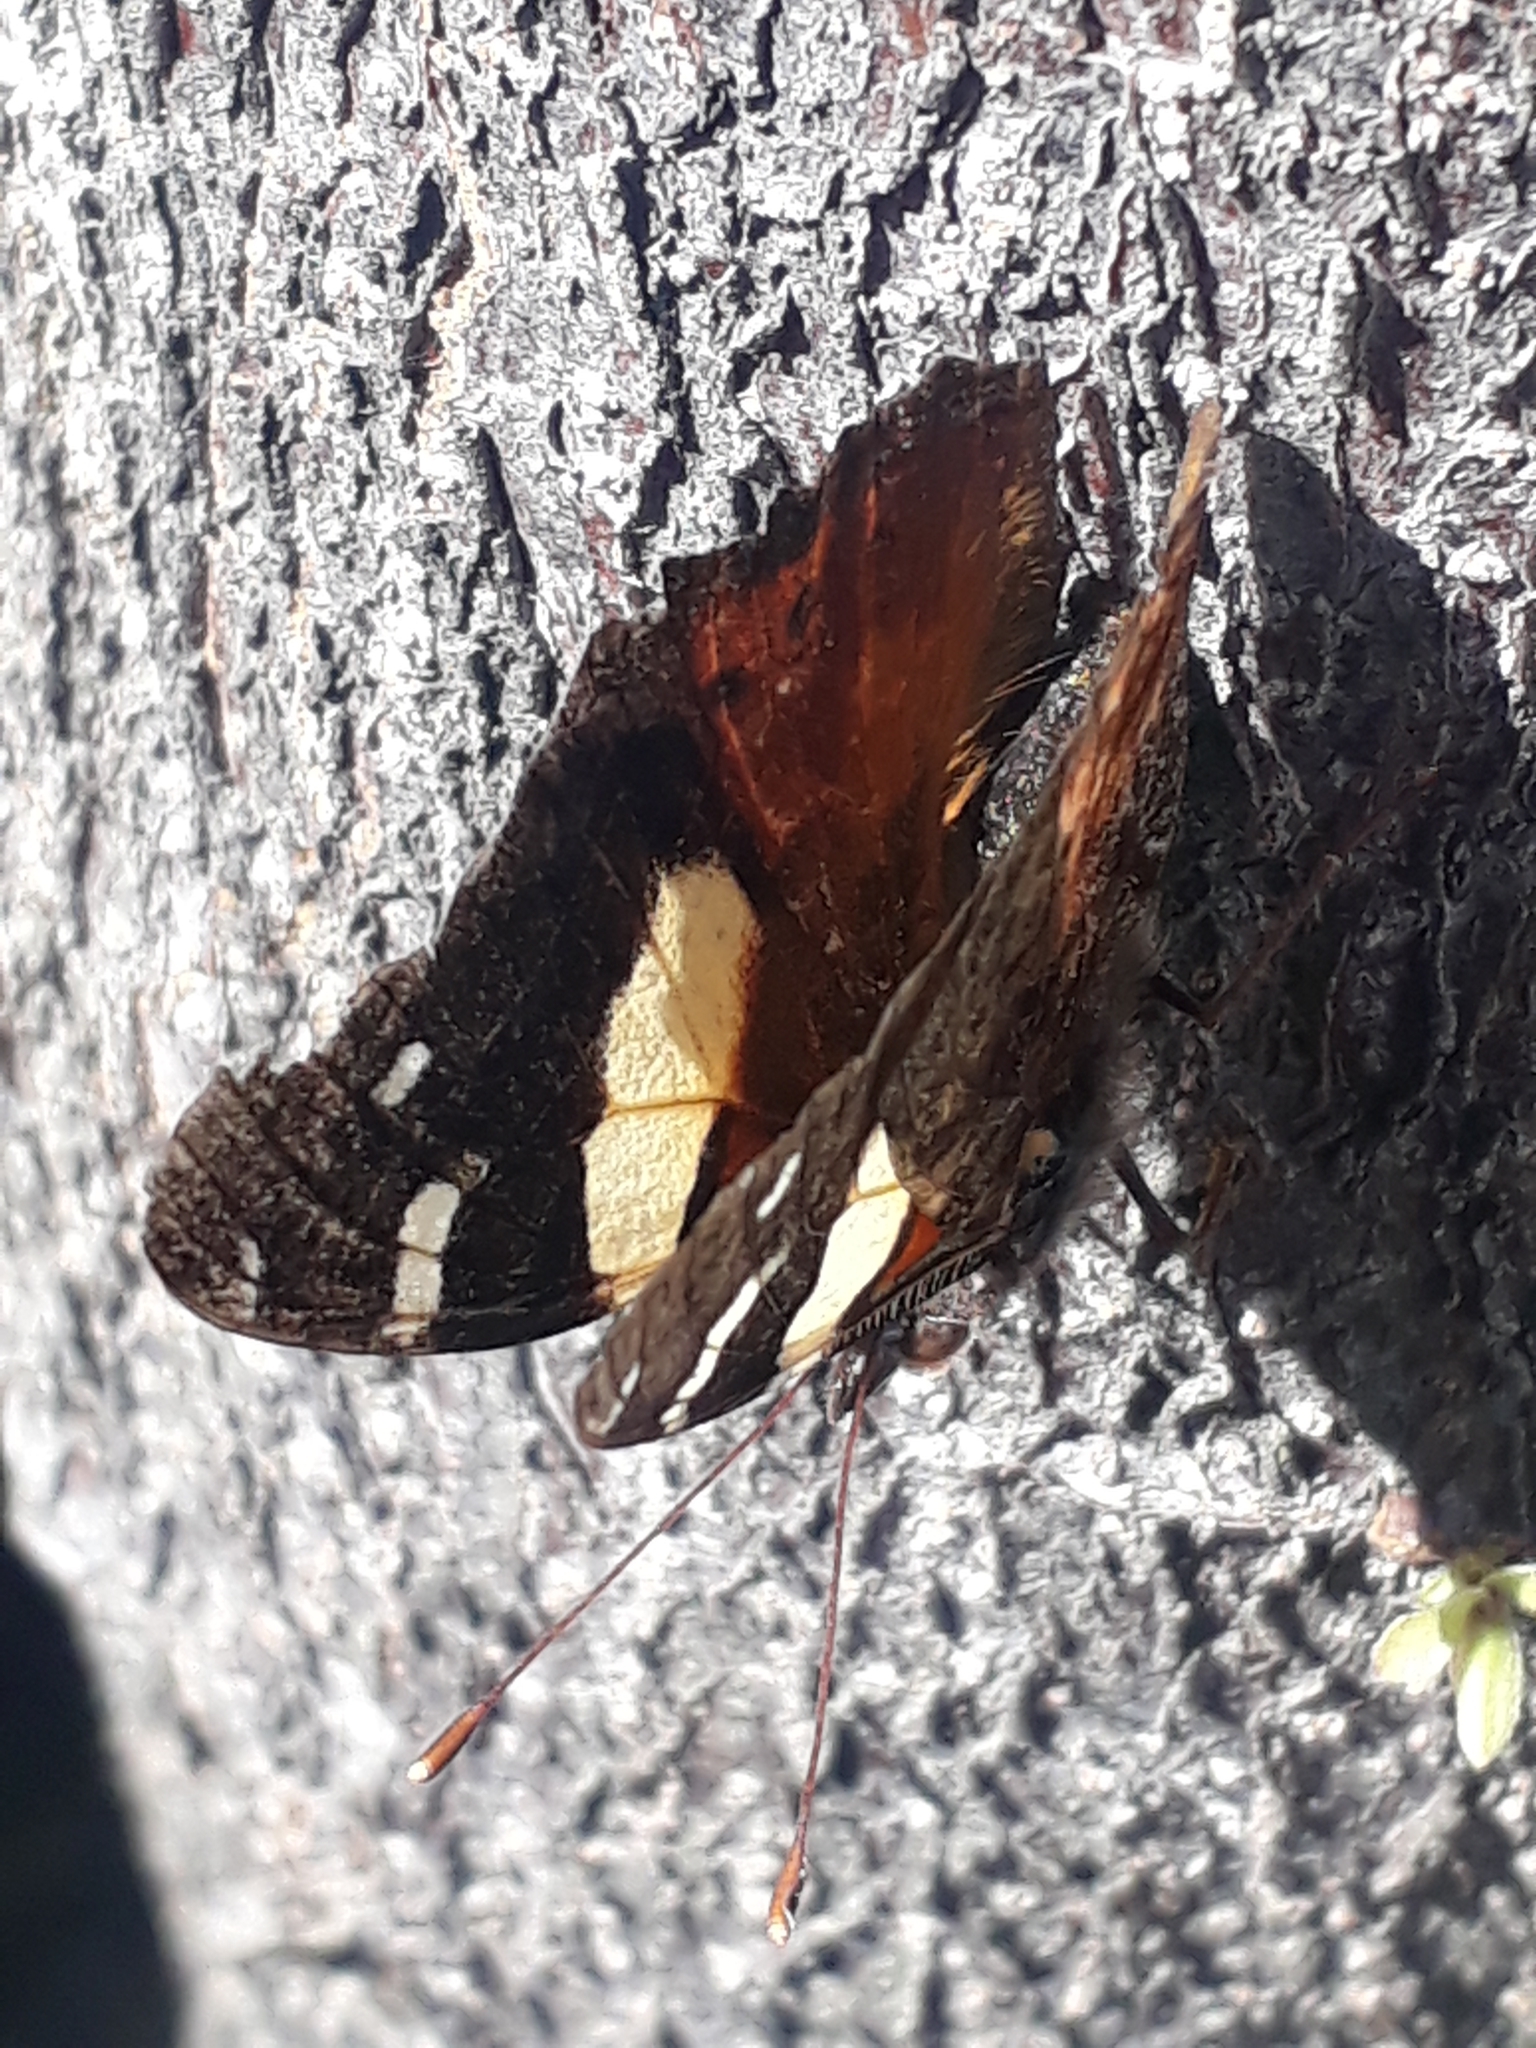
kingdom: Animalia
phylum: Arthropoda
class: Insecta
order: Lepidoptera
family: Nymphalidae
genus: Vanessa
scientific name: Vanessa itea
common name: Yellow admiral
